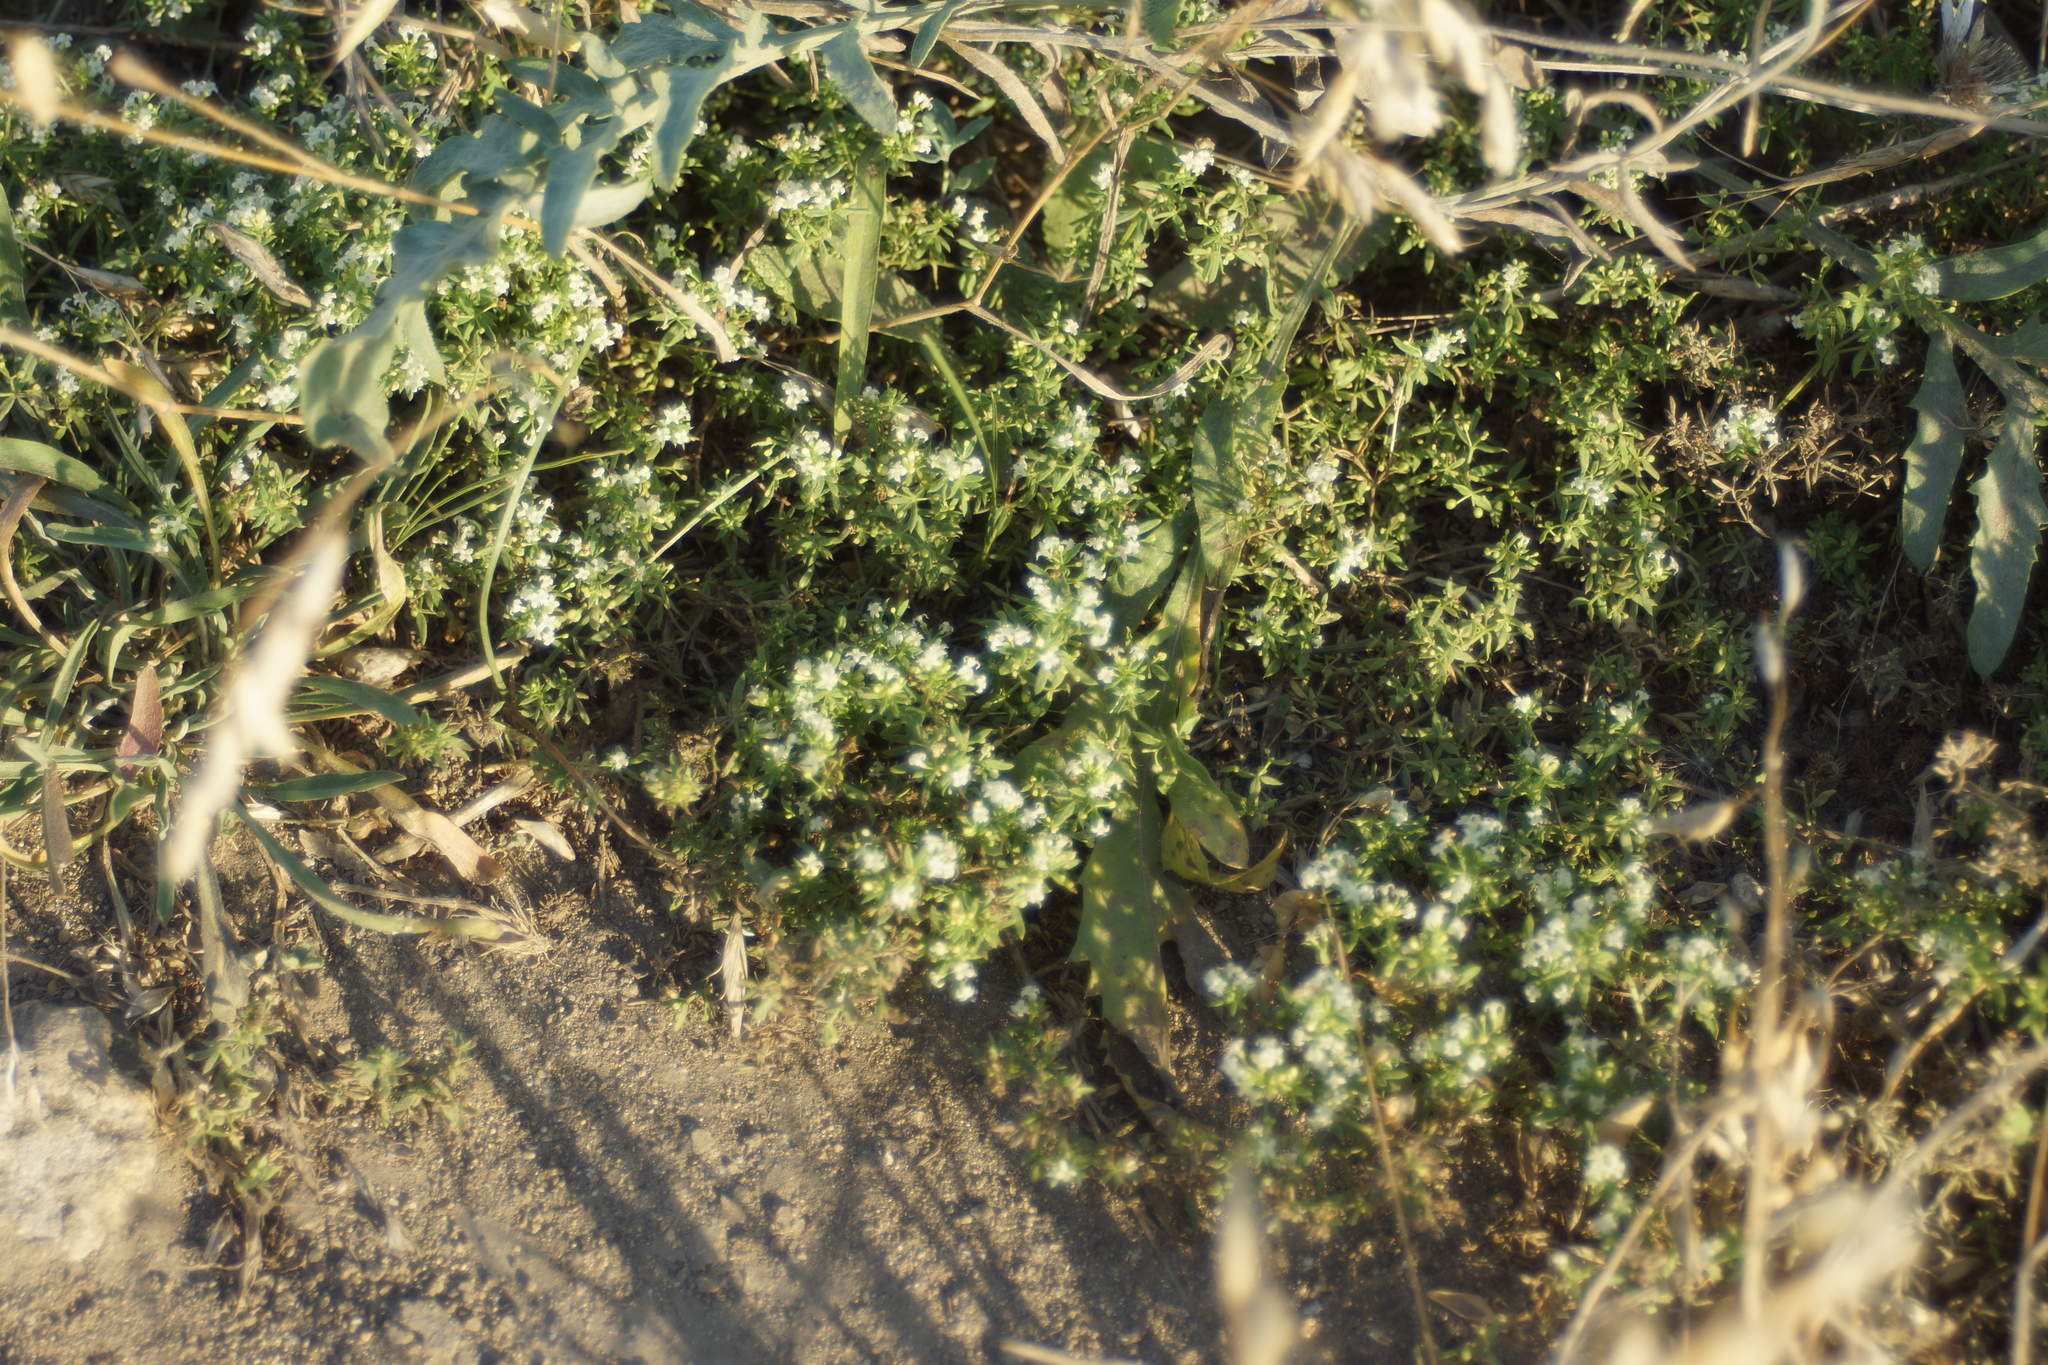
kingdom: Plantae
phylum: Tracheophyta
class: Magnoliopsida
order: Gentianales
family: Rubiaceae
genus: Galium
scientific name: Galium humifusum
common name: Spreading bedstraw
